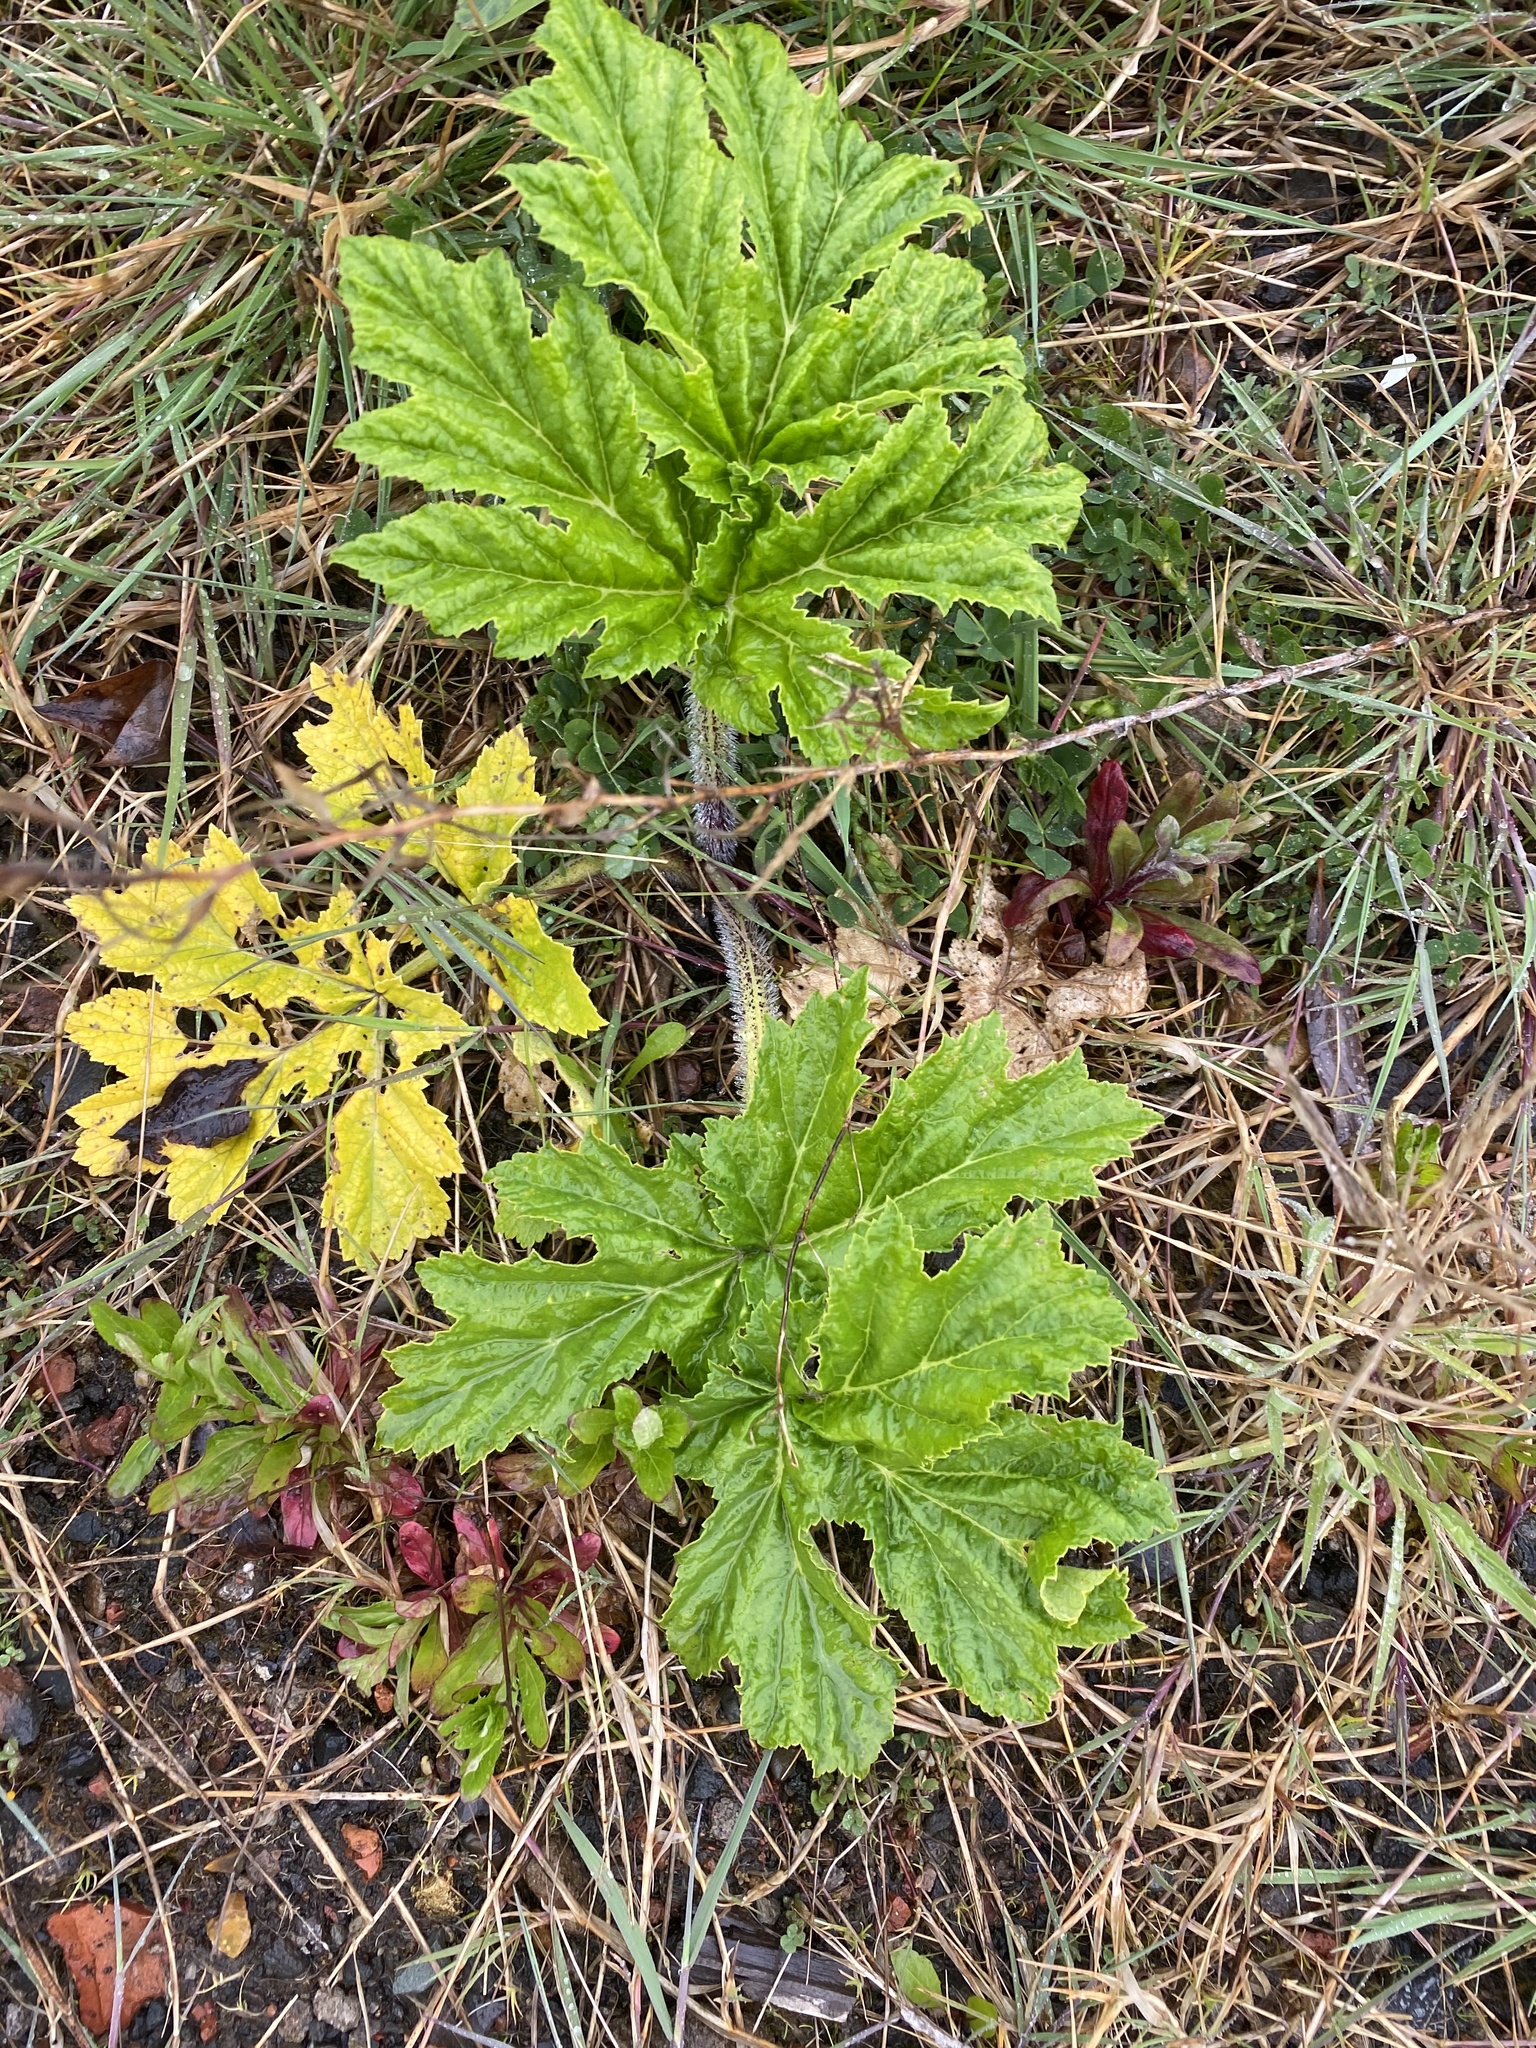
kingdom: Plantae
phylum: Tracheophyta
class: Magnoliopsida
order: Apiales
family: Apiaceae
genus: Heracleum
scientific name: Heracleum mantegazzianum
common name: Giant hogweed
